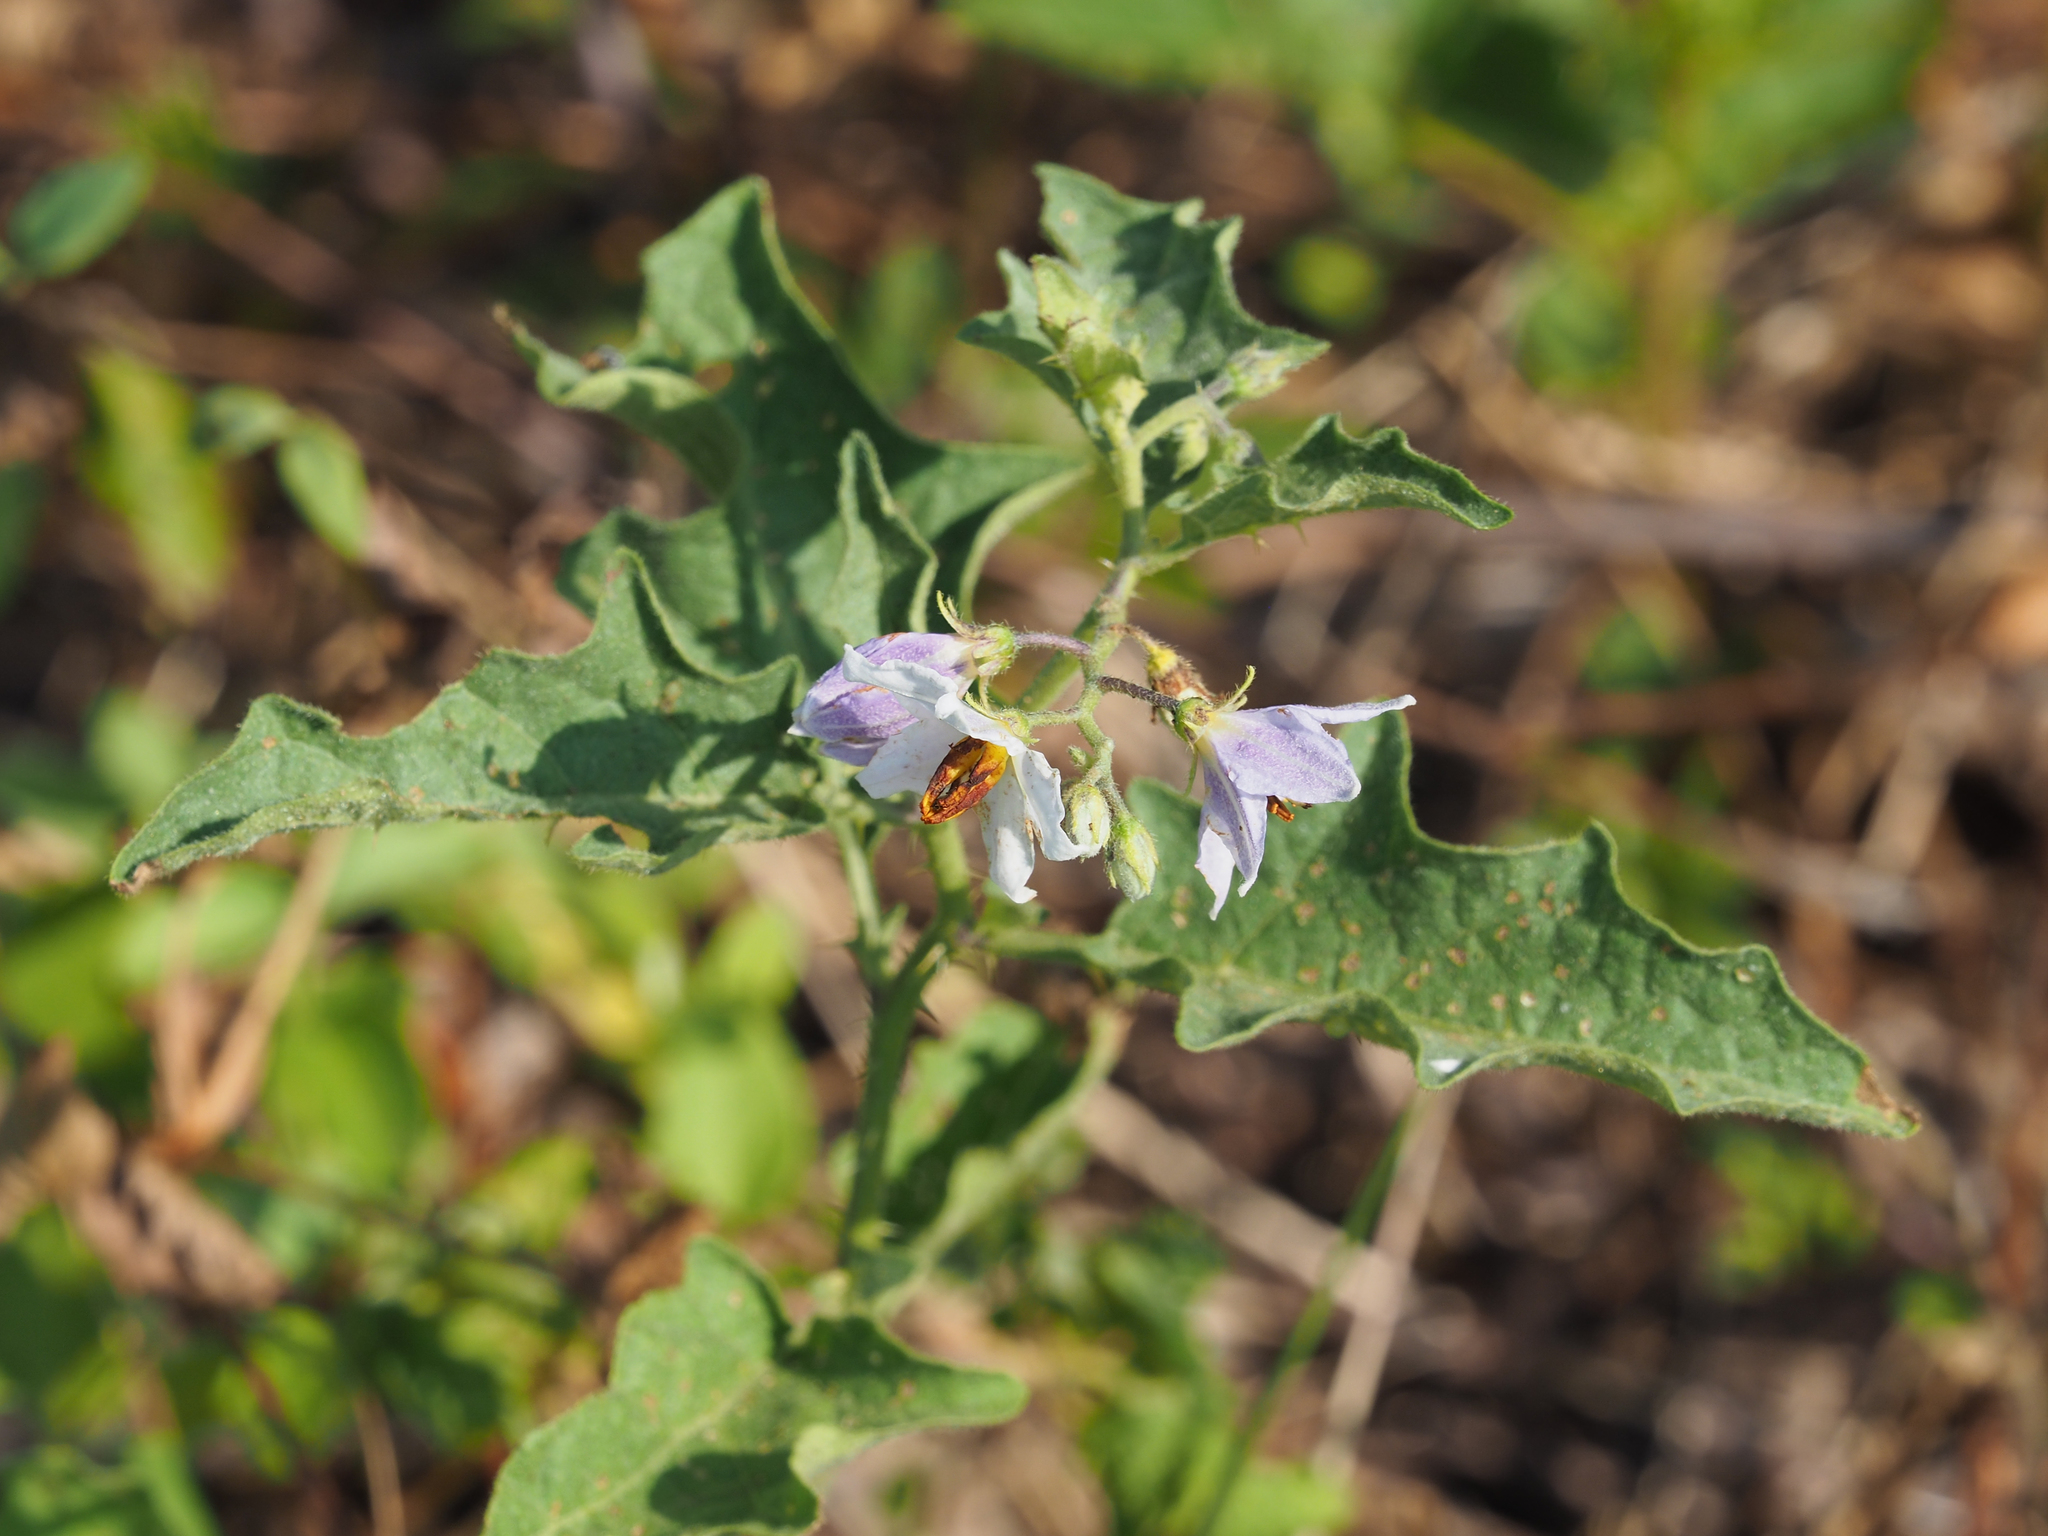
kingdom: Plantae
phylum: Tracheophyta
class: Magnoliopsida
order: Solanales
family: Solanaceae
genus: Solanum
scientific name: Solanum carolinense
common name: Horse-nettle
